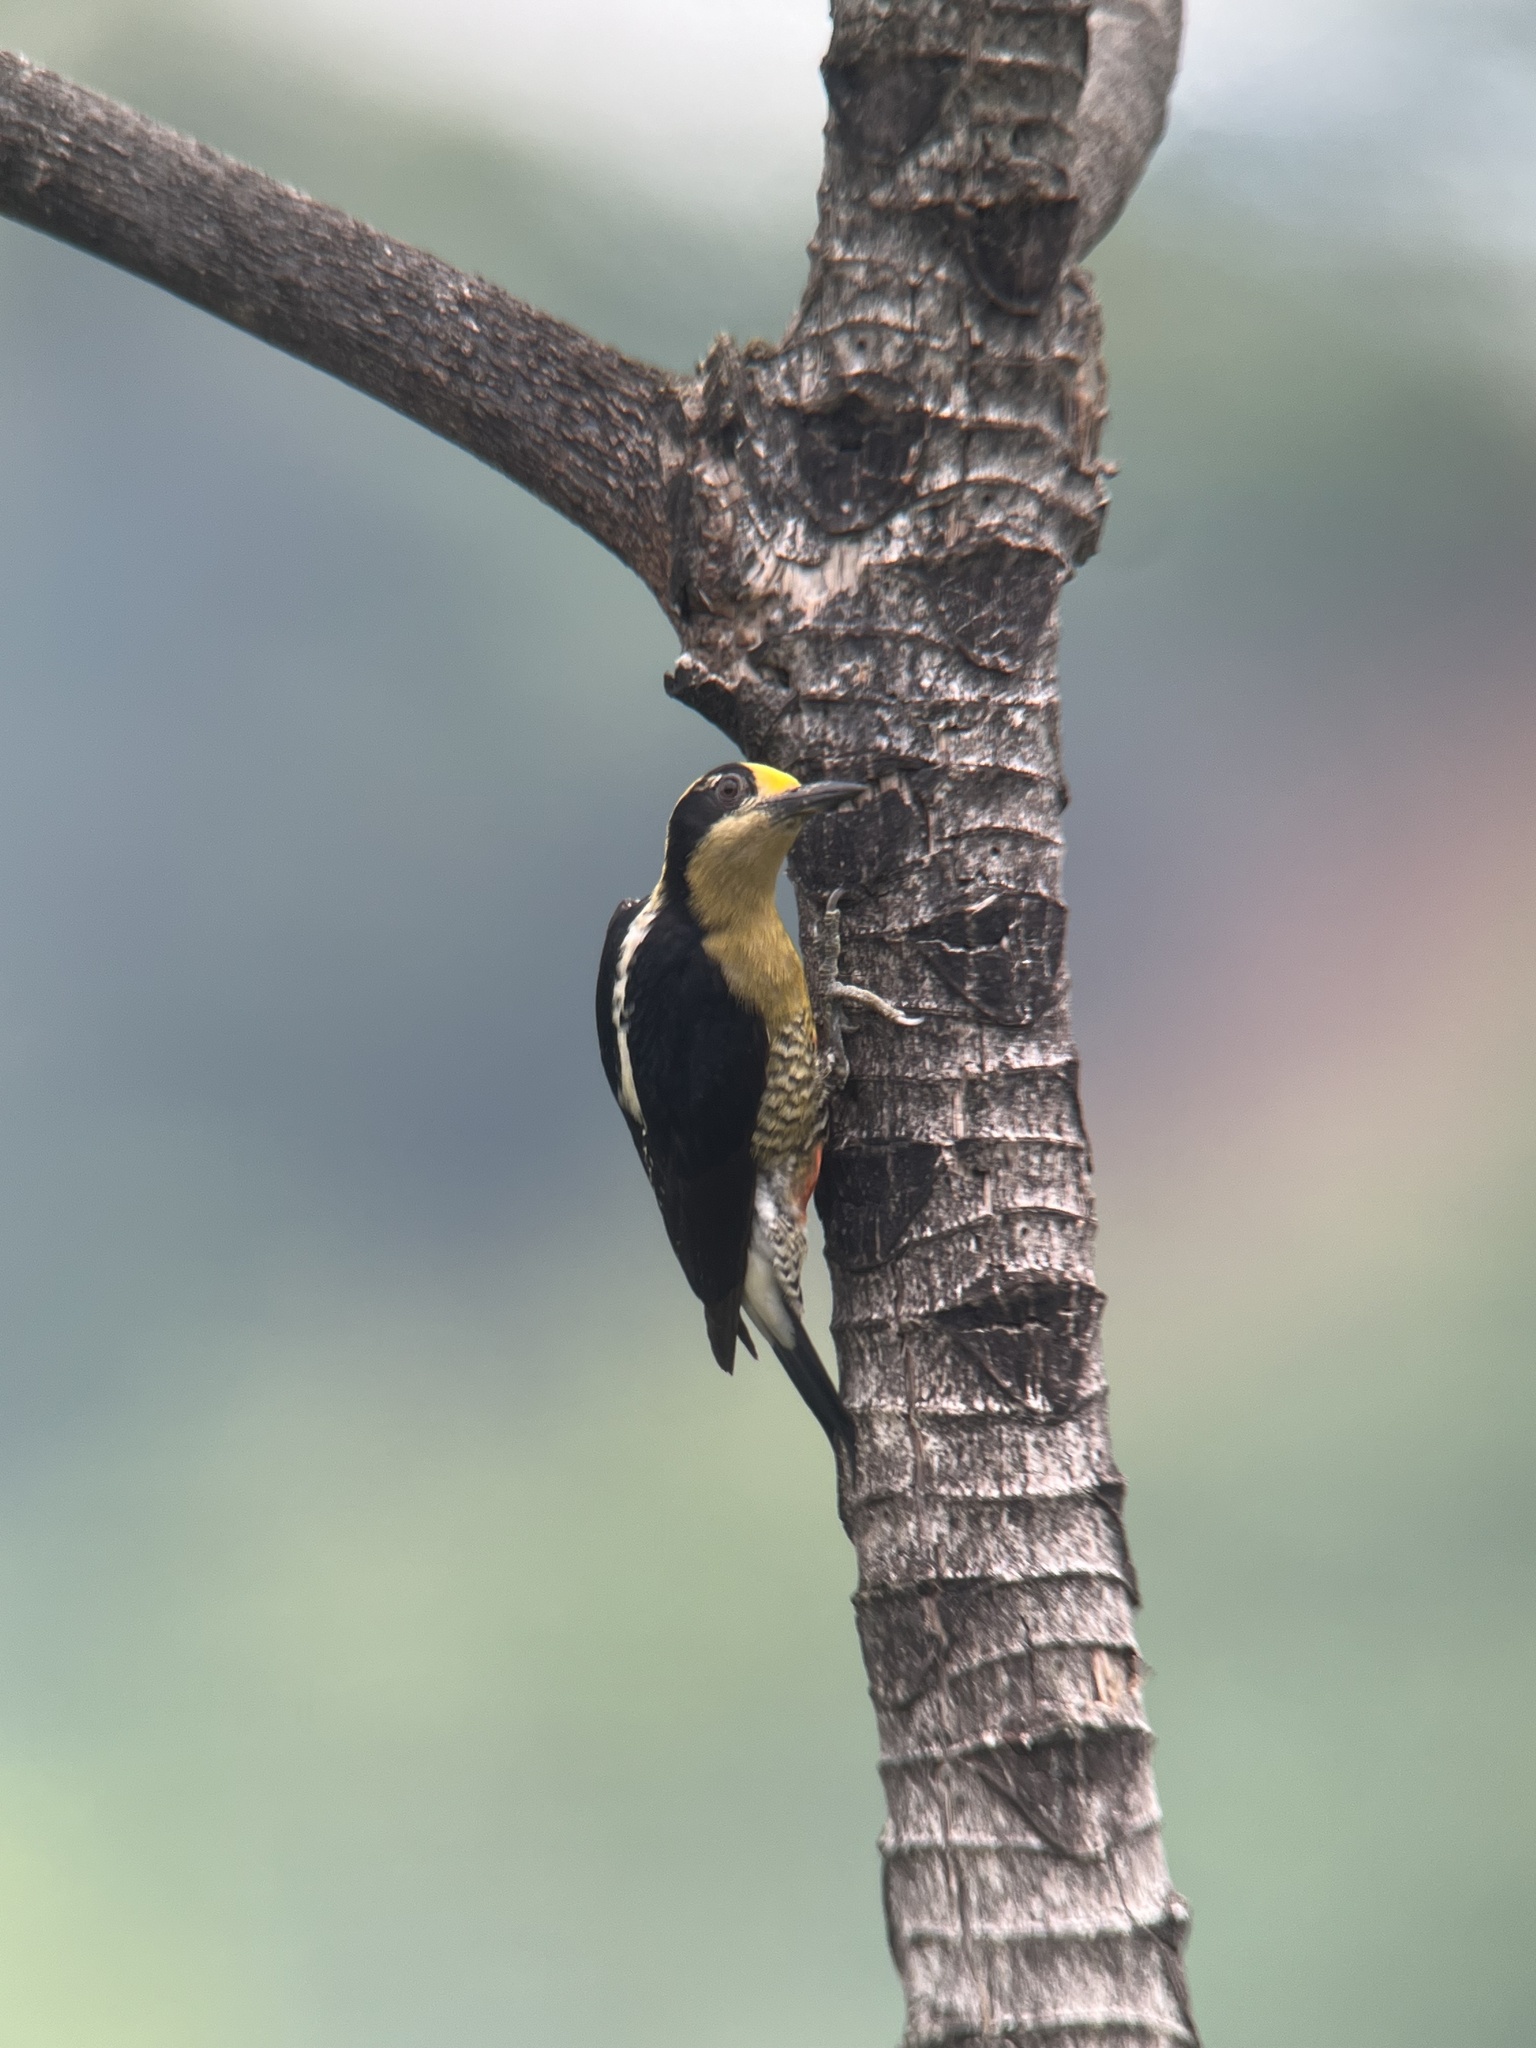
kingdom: Animalia
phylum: Chordata
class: Aves
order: Piciformes
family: Picidae
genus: Melanerpes
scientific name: Melanerpes chrysauchen
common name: Golden-naped woodpecker
